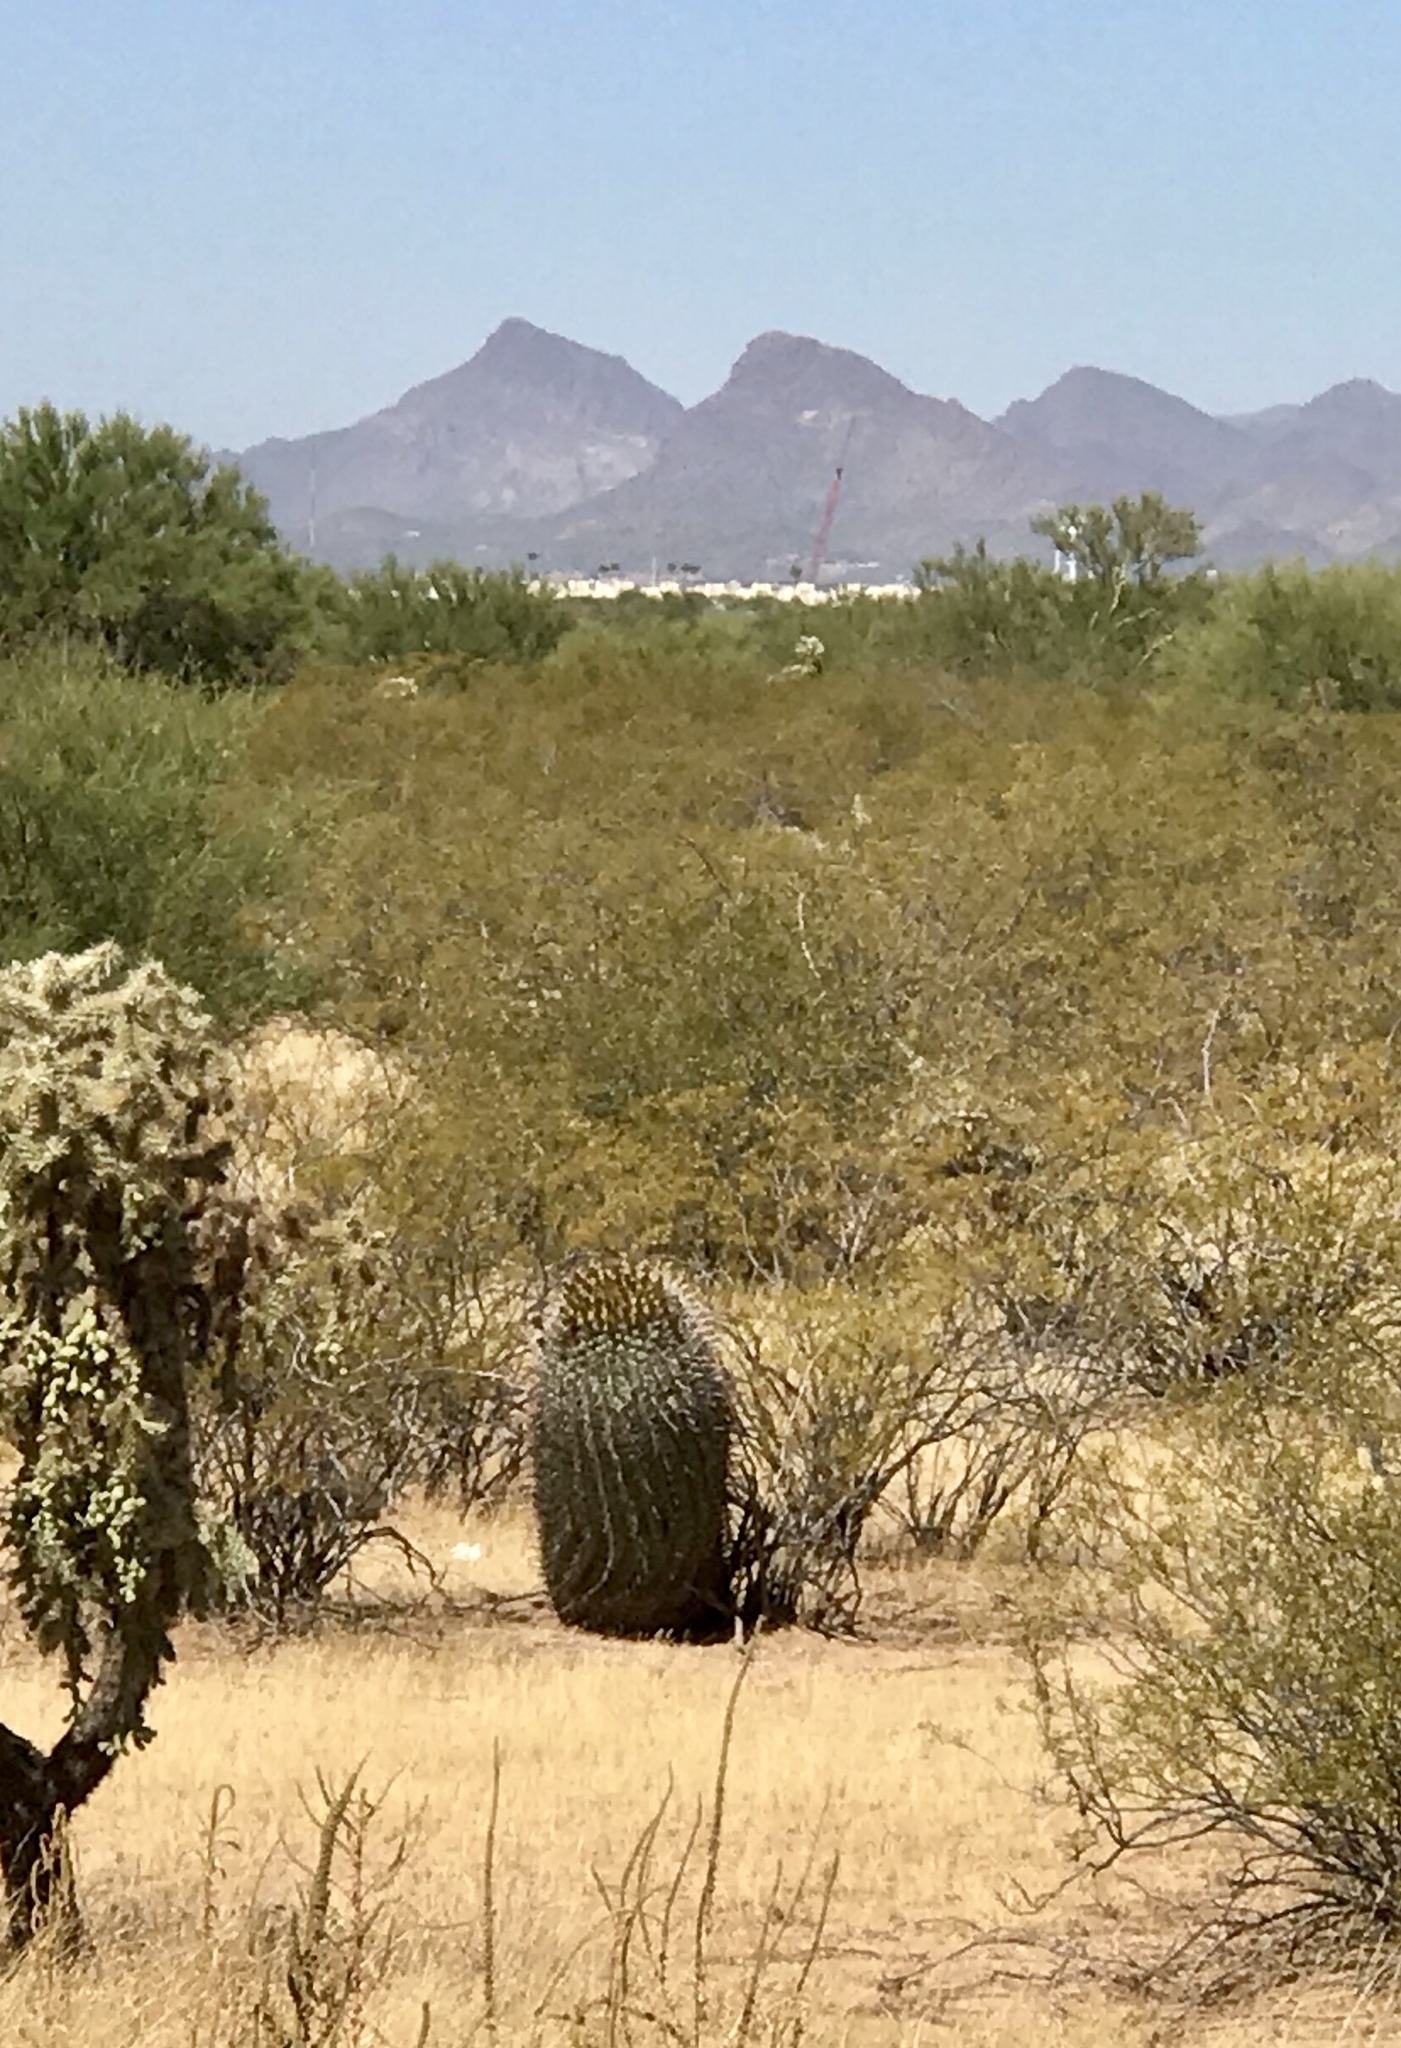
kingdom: Plantae
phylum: Tracheophyta
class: Magnoliopsida
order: Caryophyllales
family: Cactaceae
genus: Ferocactus
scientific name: Ferocactus wislizeni
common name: Candy barrel cactus
